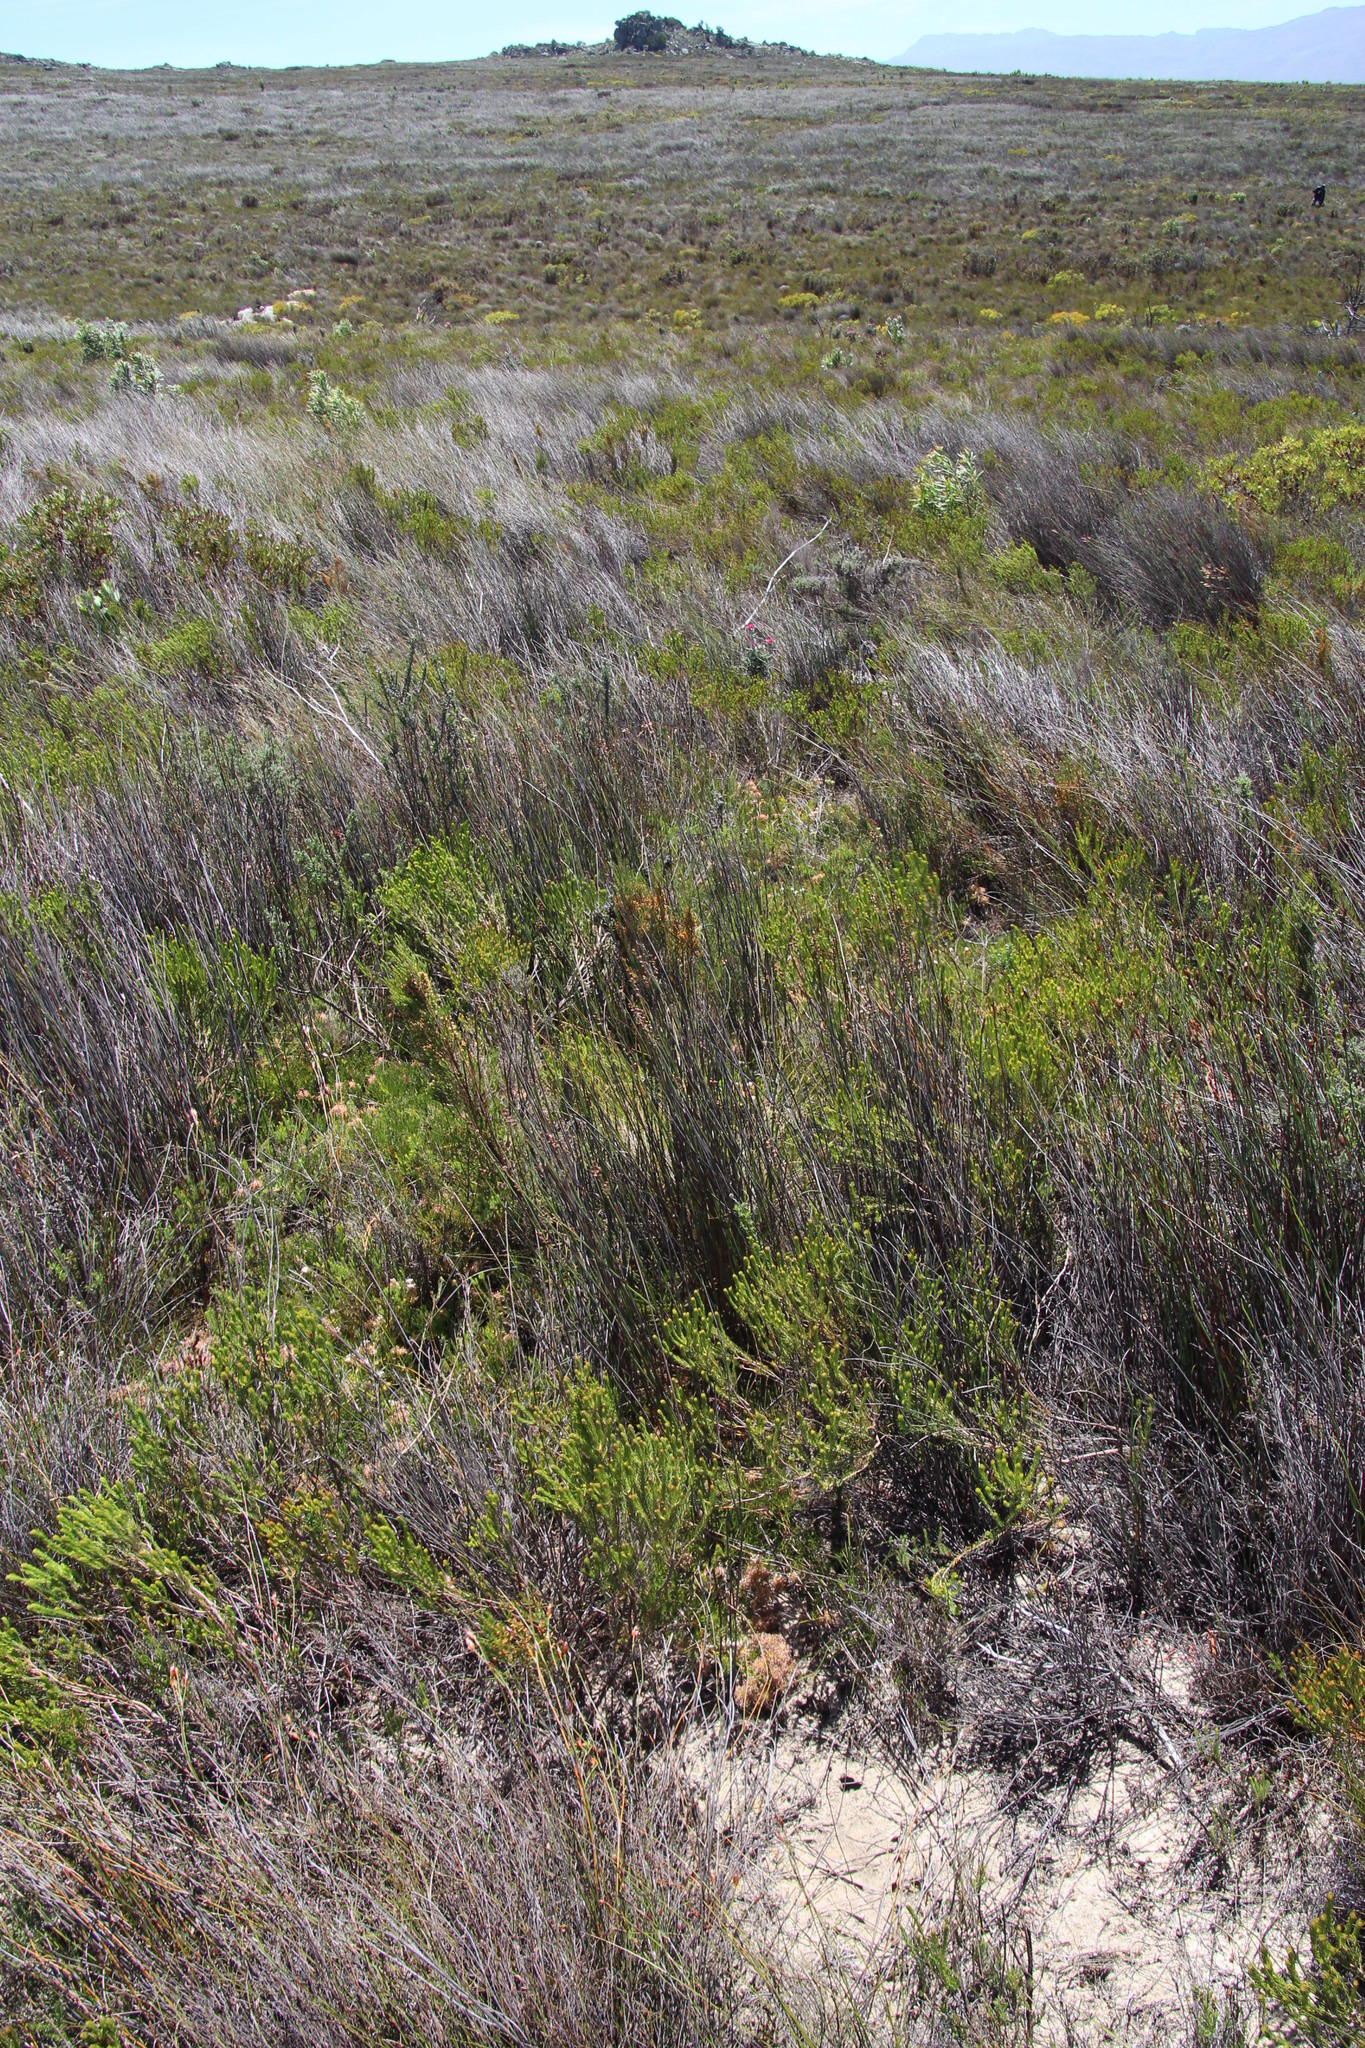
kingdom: Plantae
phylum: Tracheophyta
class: Magnoliopsida
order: Proteales
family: Proteaceae
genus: Serruria
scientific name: Serruria cygnea
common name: Swan spiderhead
